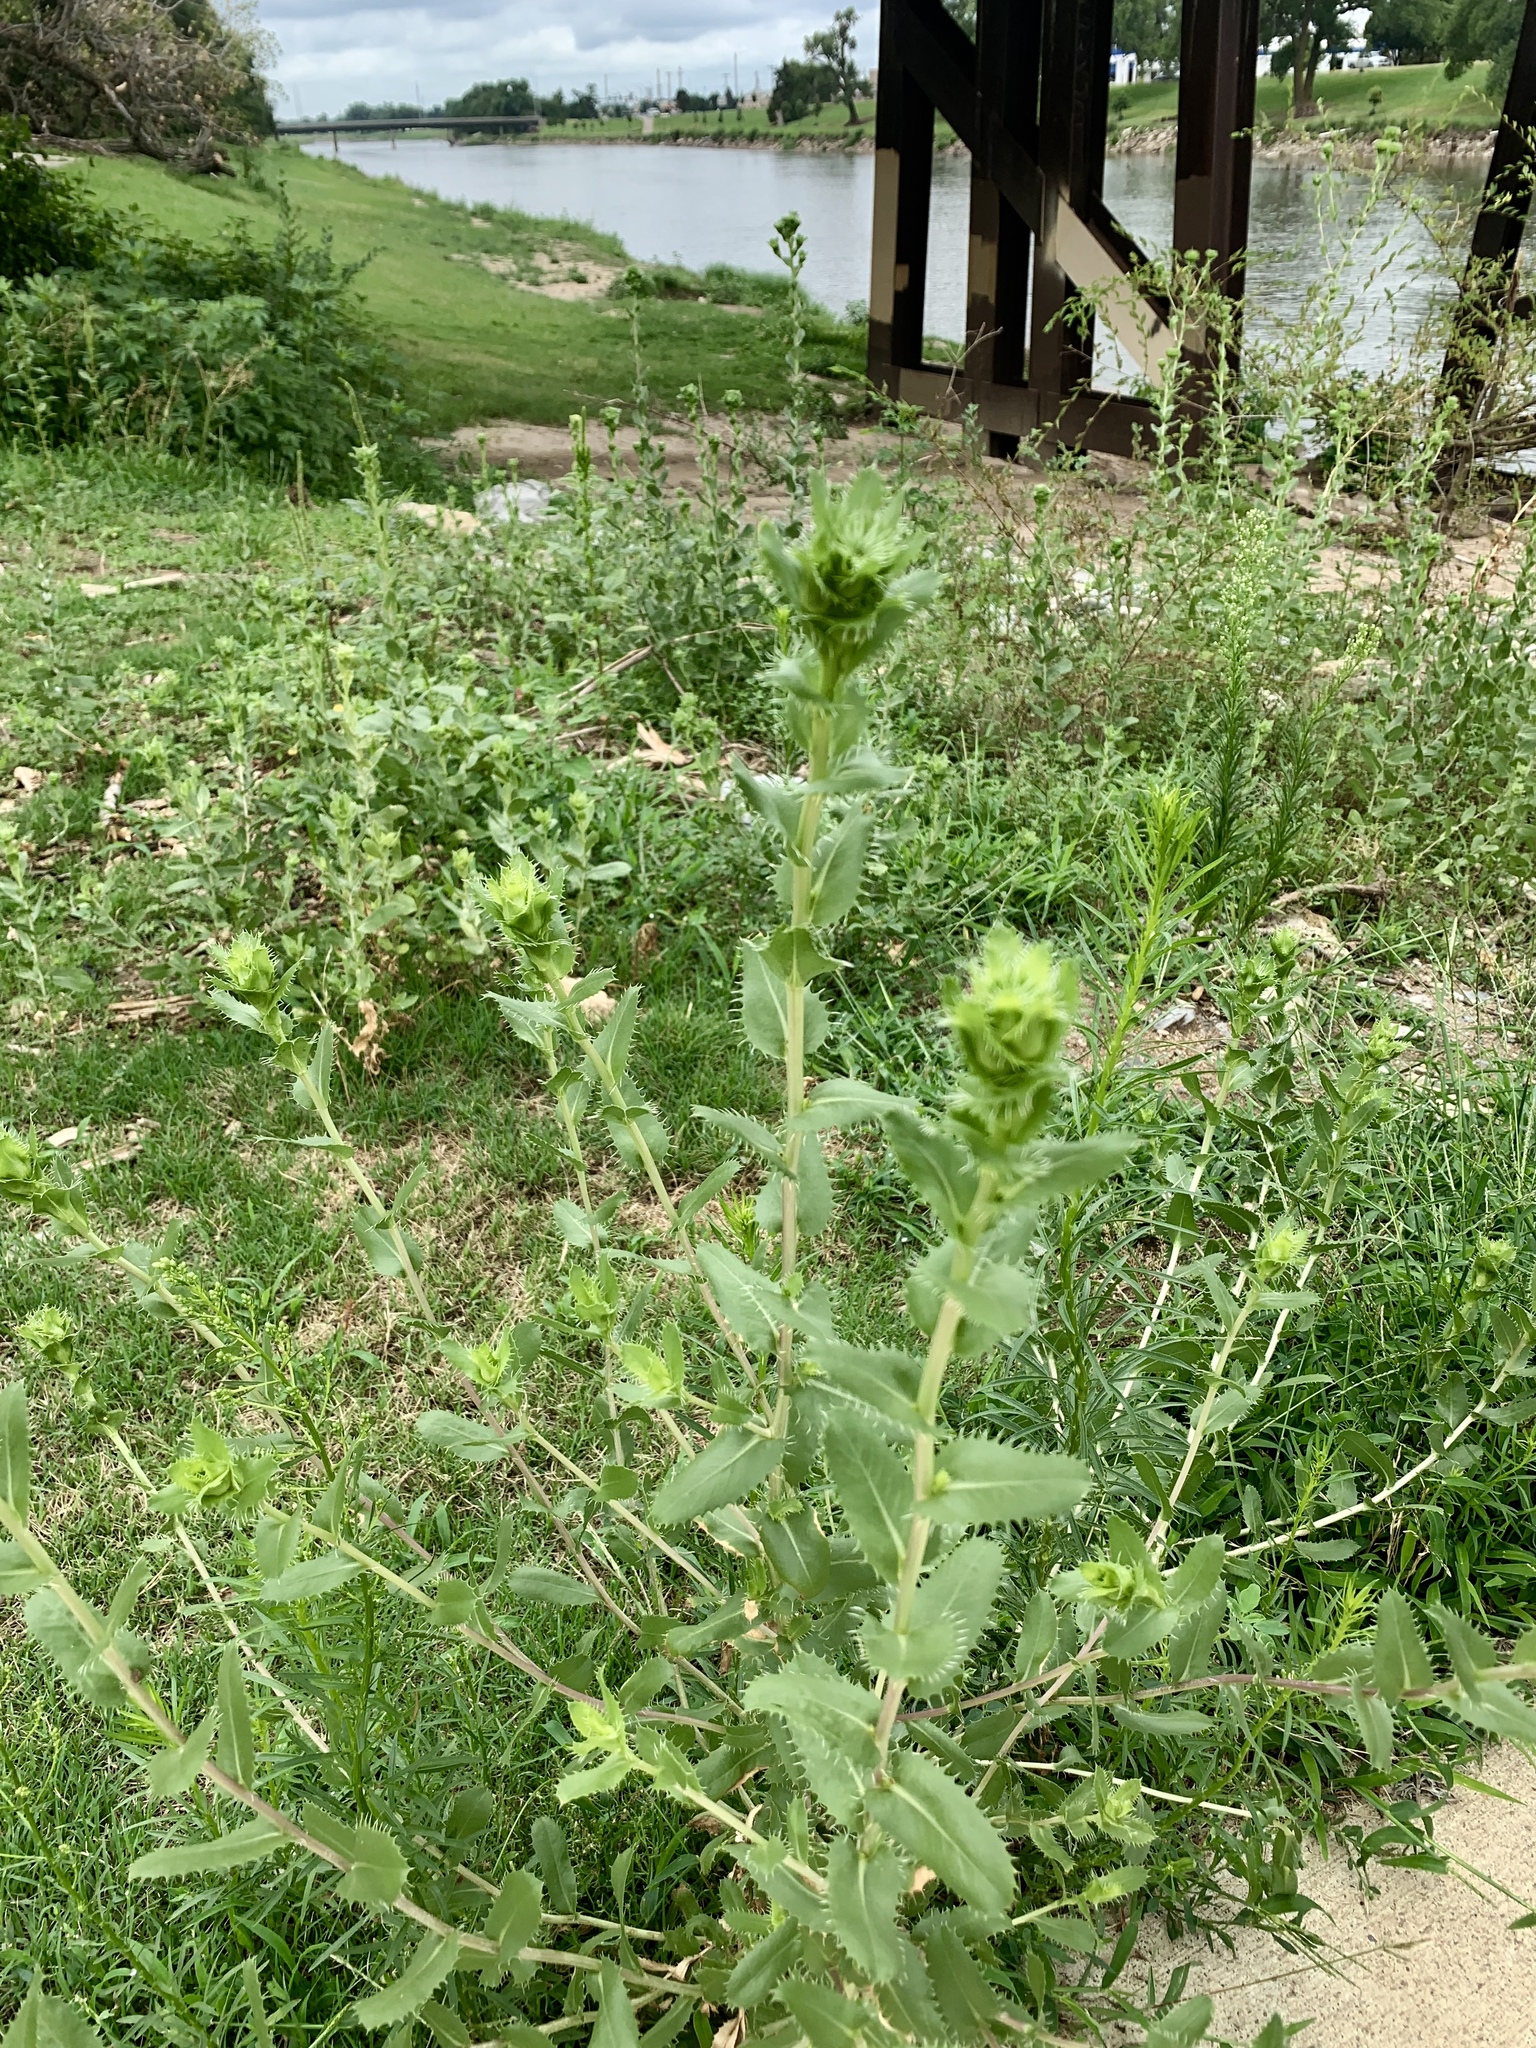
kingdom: Plantae
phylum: Tracheophyta
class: Magnoliopsida
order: Asterales
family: Asteraceae
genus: Grindelia
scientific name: Grindelia ciliata
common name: Goldenweed
